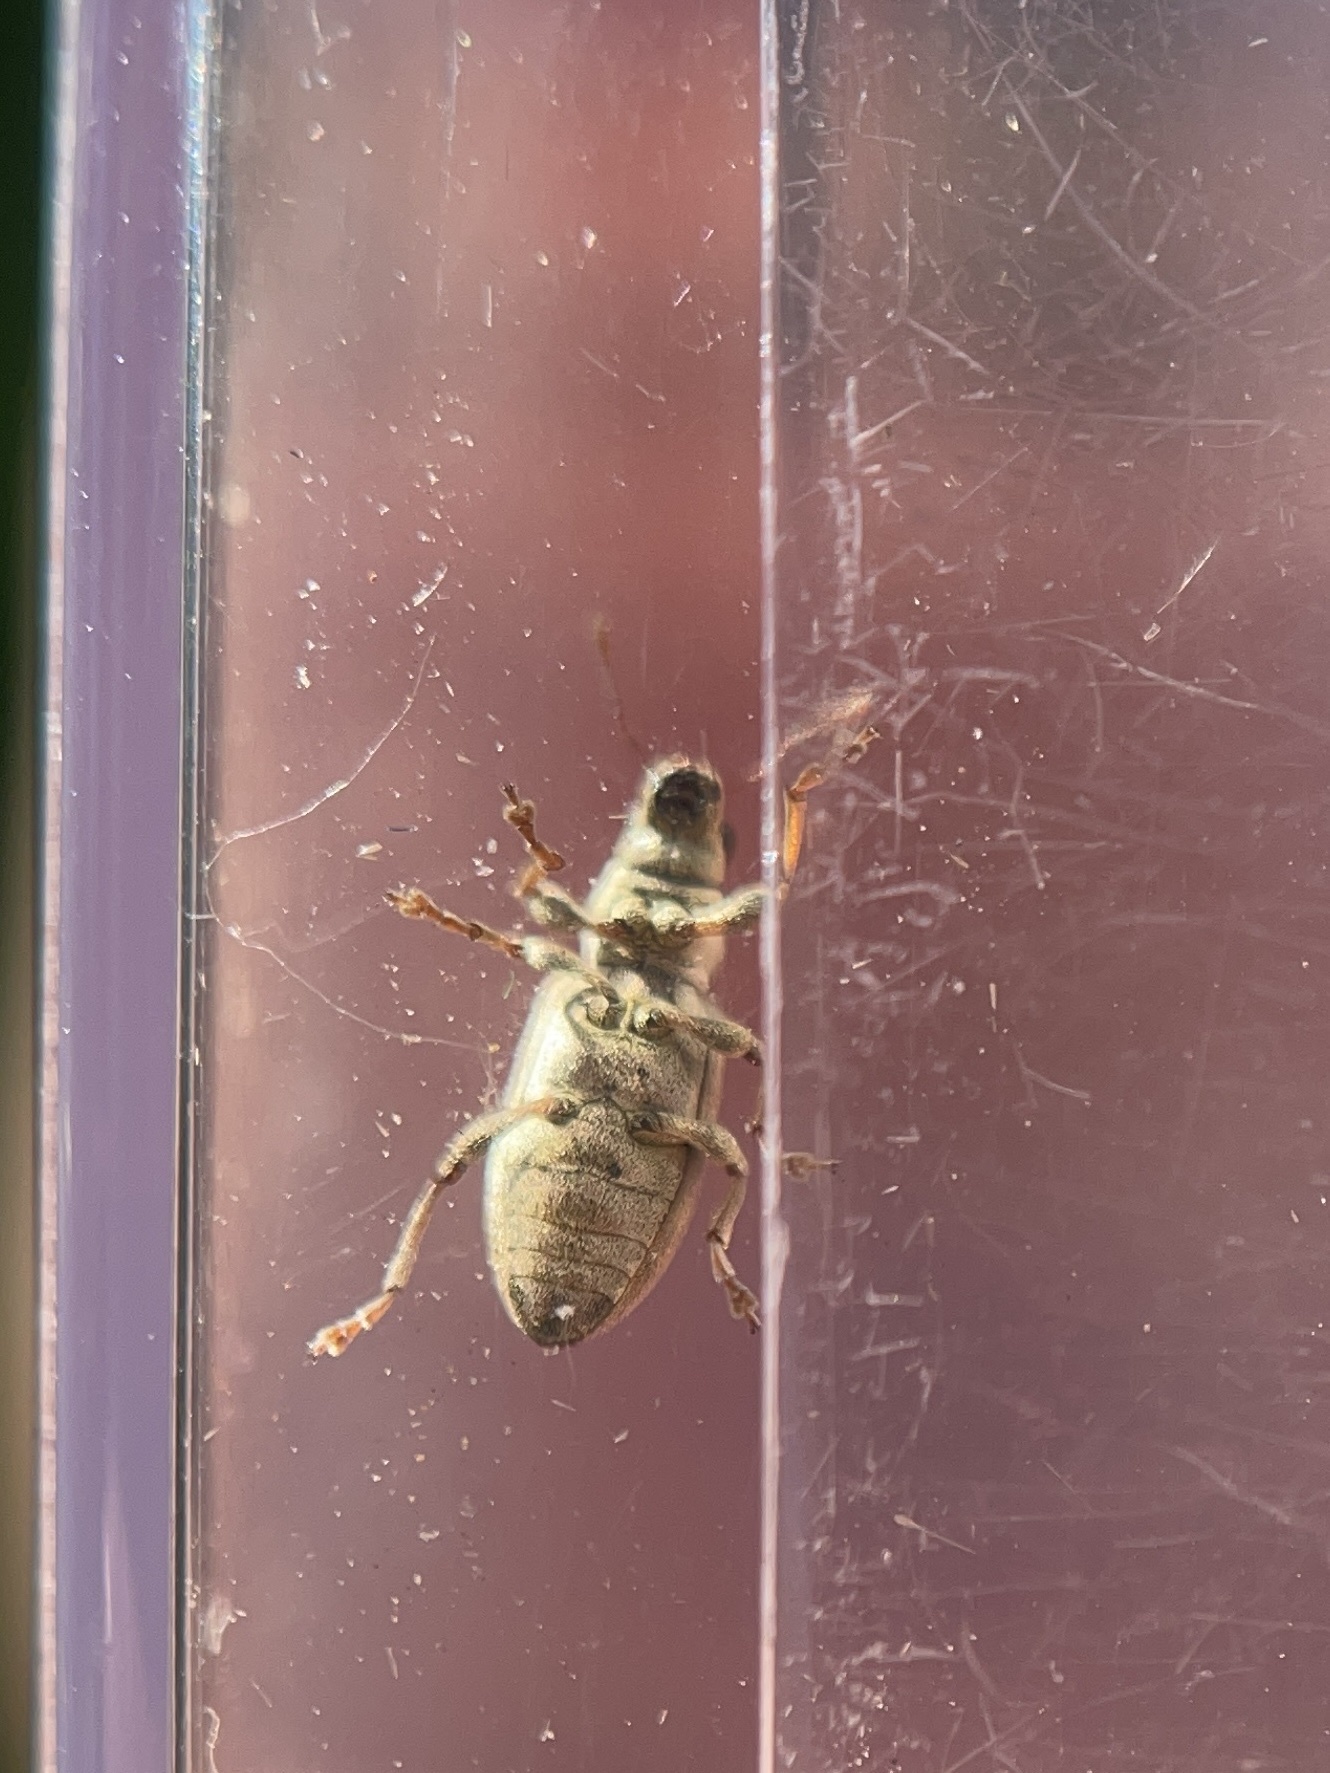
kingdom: Animalia
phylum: Arthropoda
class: Insecta
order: Coleoptera
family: Curculionidae
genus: Sitona
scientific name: Sitona lineatus
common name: Weevil
